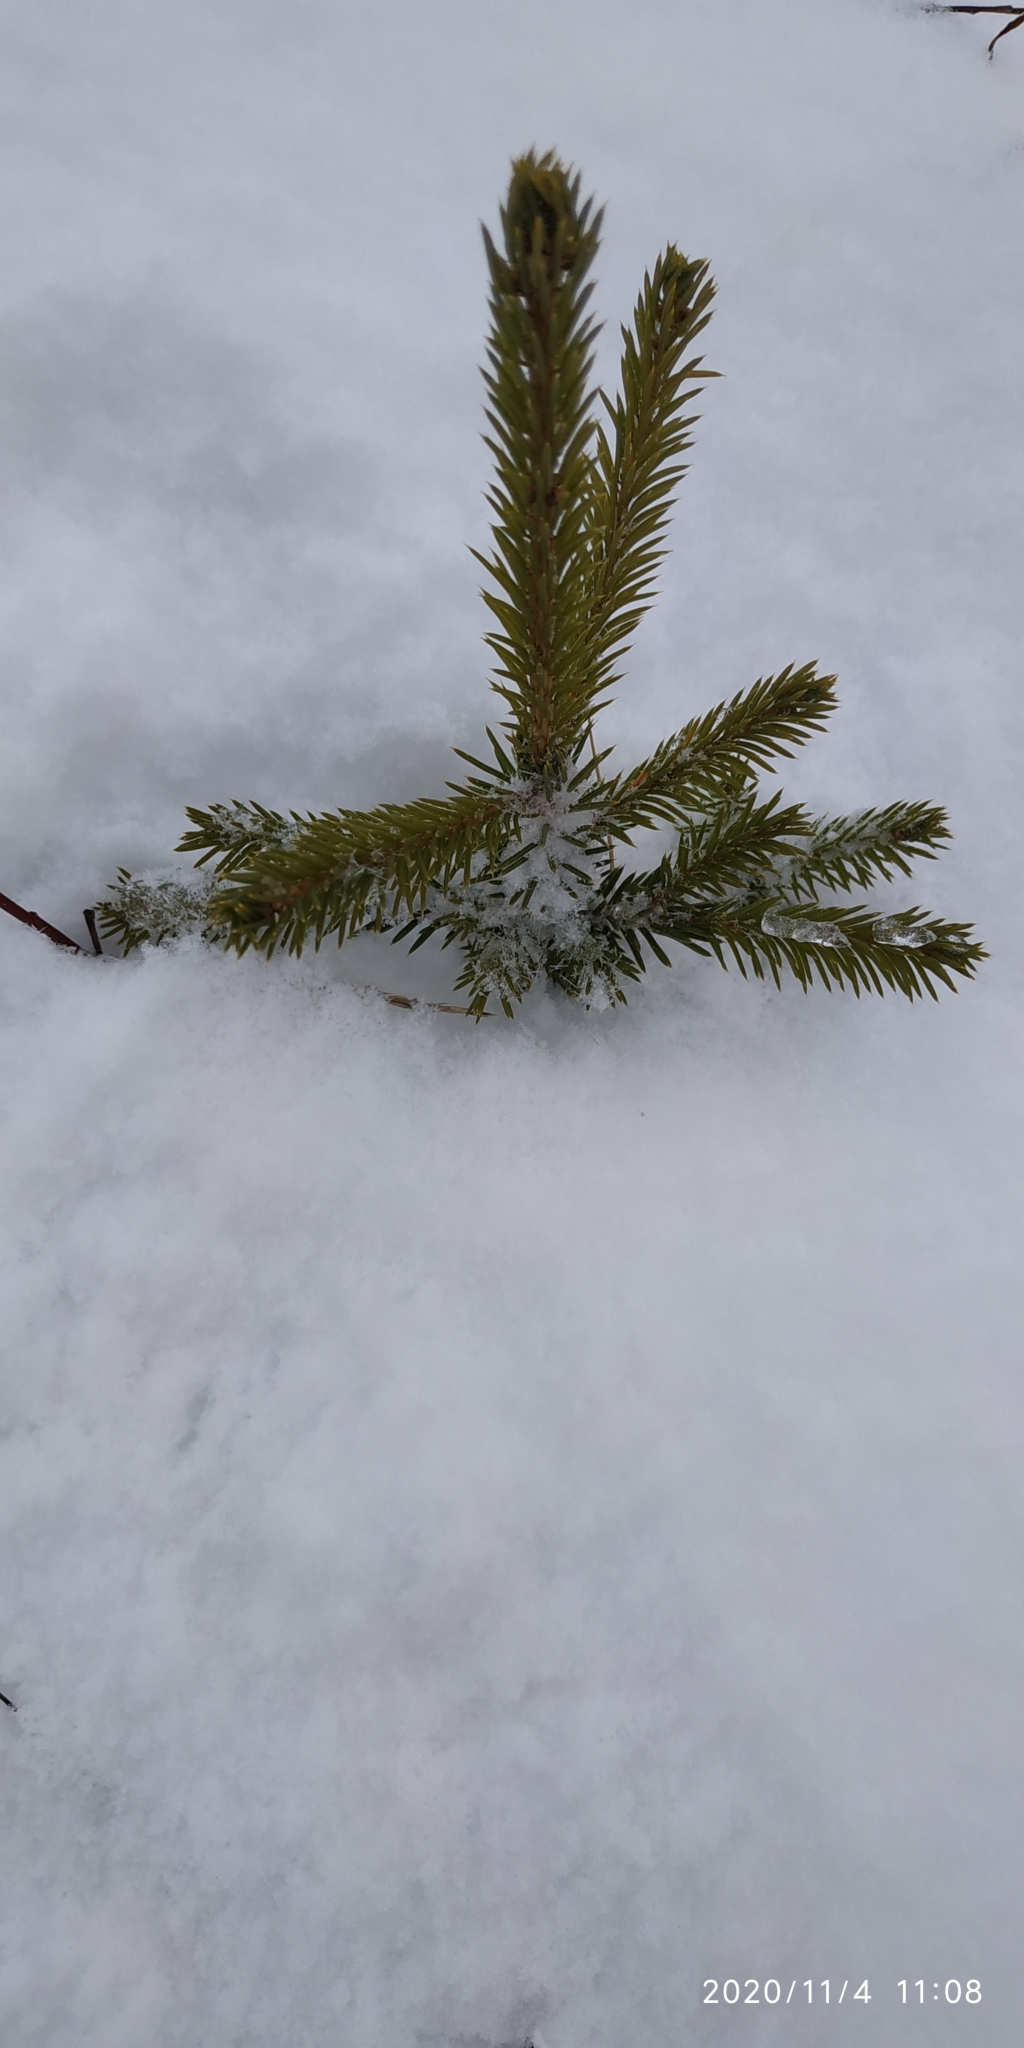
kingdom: Plantae
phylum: Tracheophyta
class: Pinopsida
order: Pinales
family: Pinaceae
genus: Picea
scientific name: Picea obovata
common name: Siberian spruce
